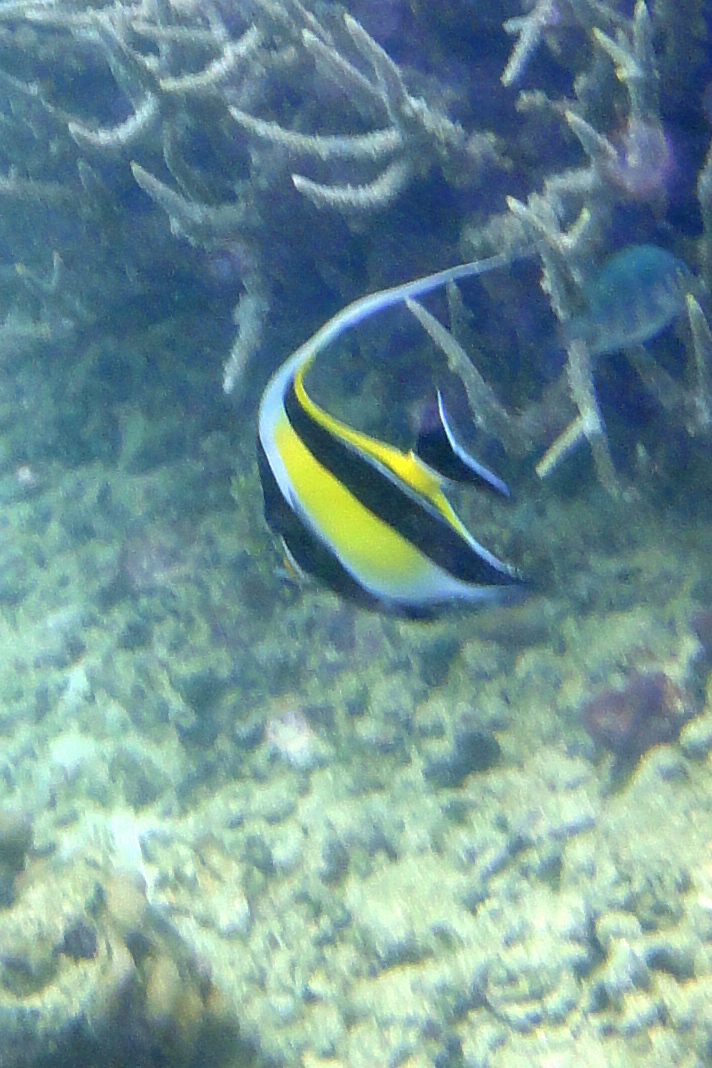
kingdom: Animalia
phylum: Chordata
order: Perciformes
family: Zanclidae
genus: Zanclus
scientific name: Zanclus cornutus
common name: Moorish idol
